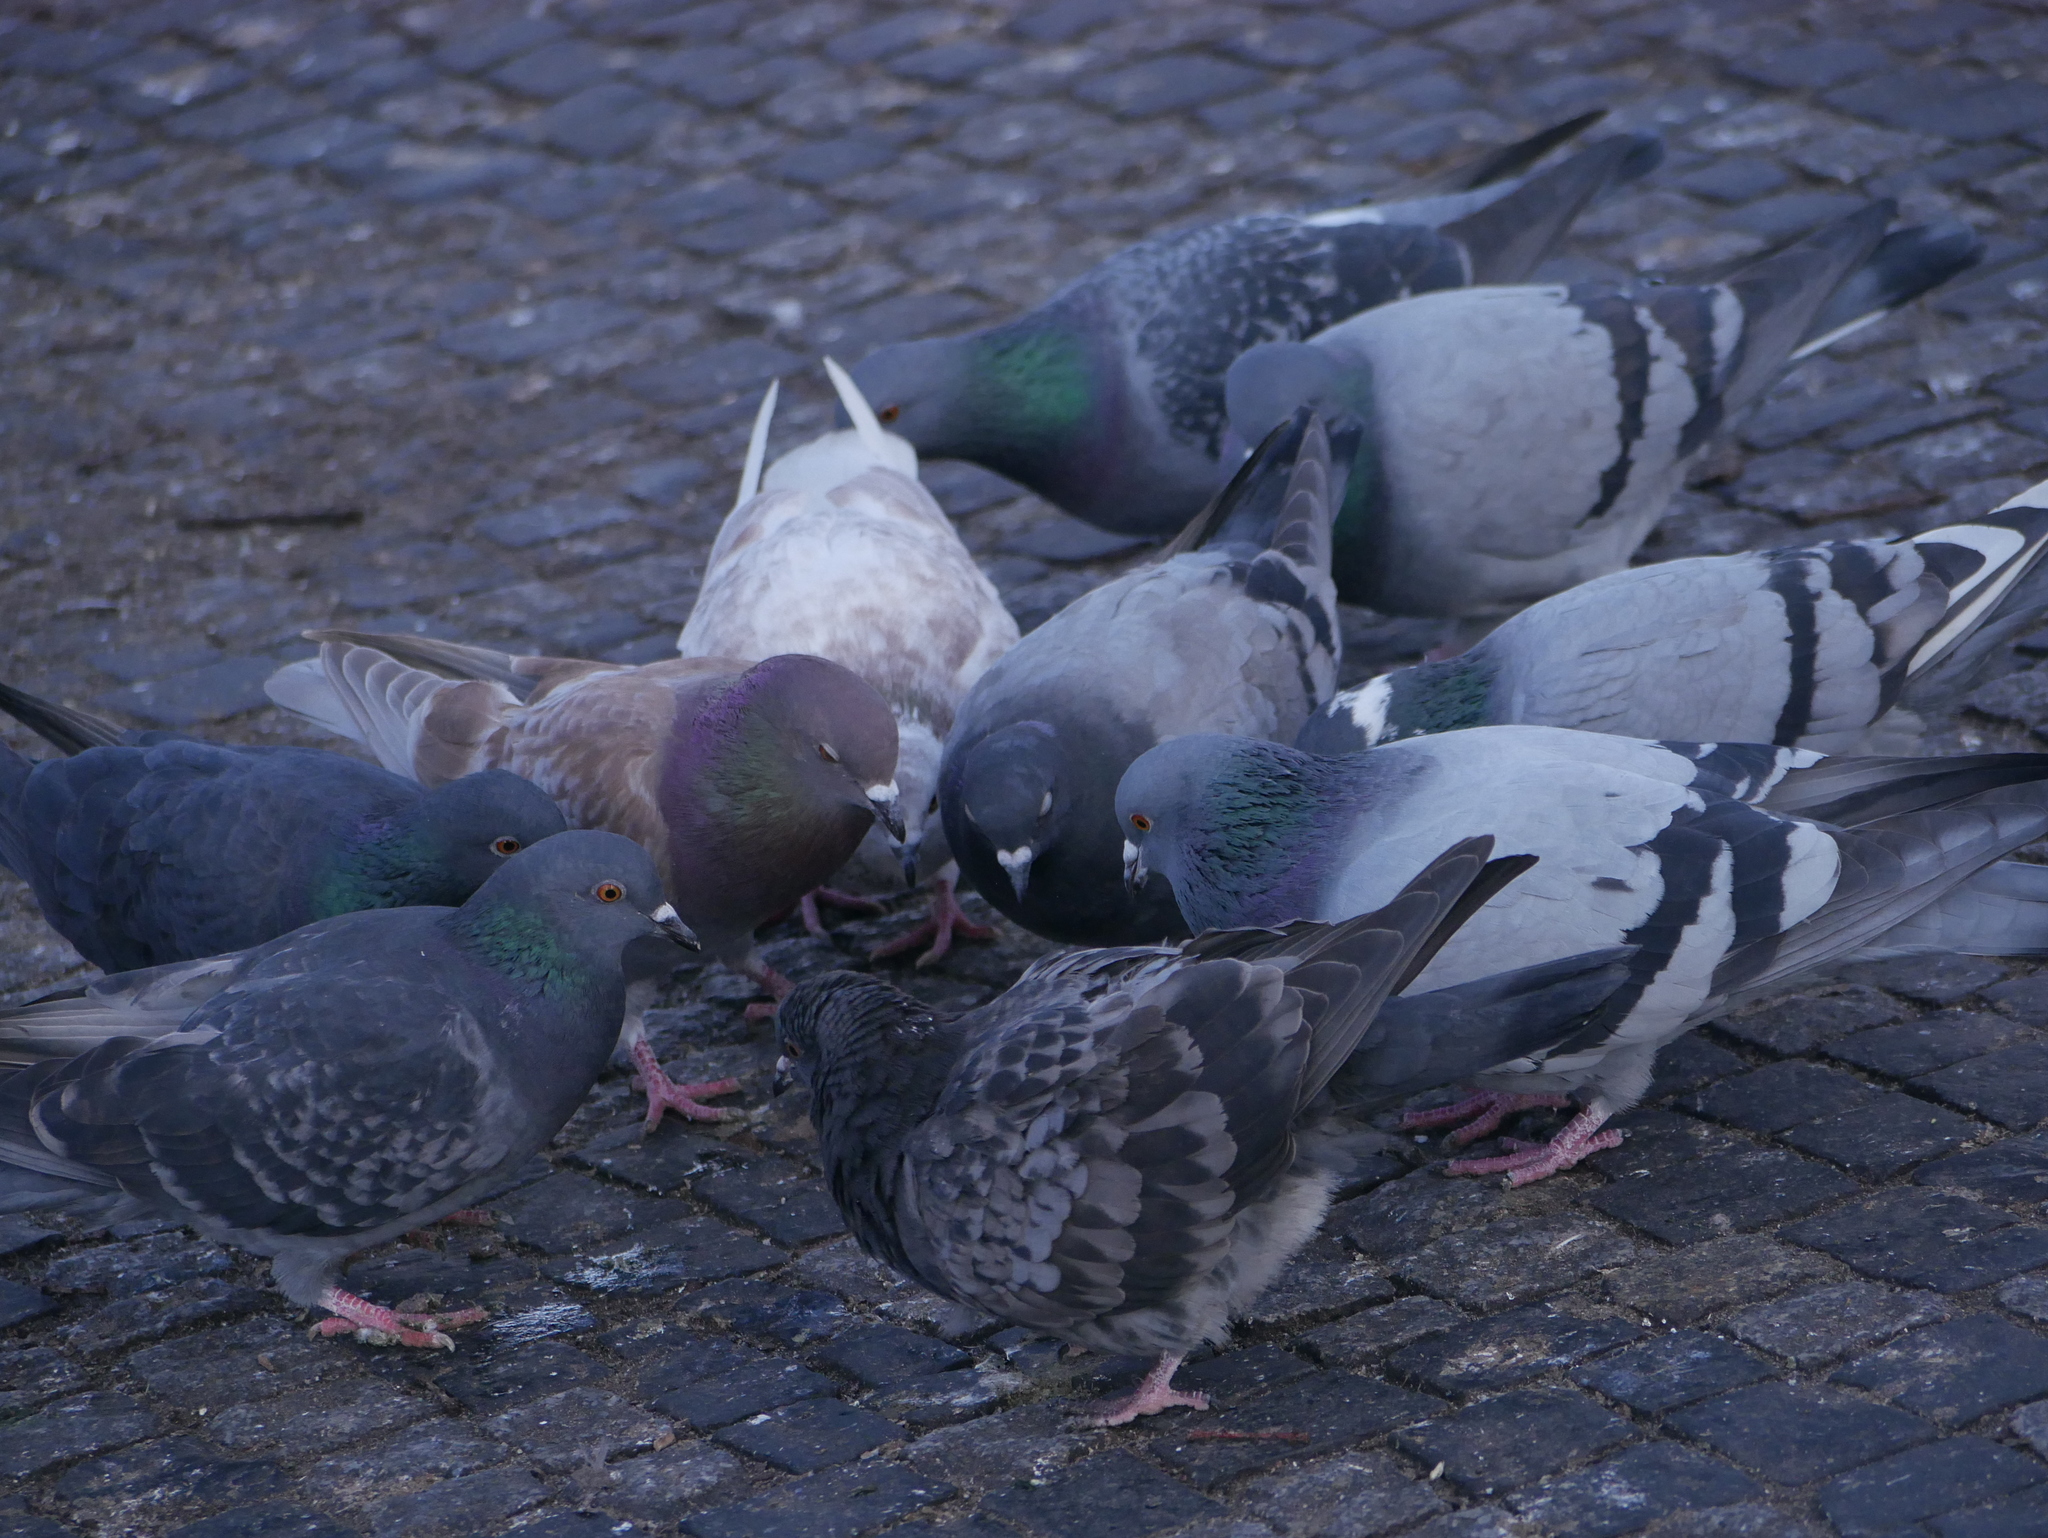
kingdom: Animalia
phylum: Chordata
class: Aves
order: Columbiformes
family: Columbidae
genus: Columba
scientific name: Columba livia
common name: Rock pigeon
